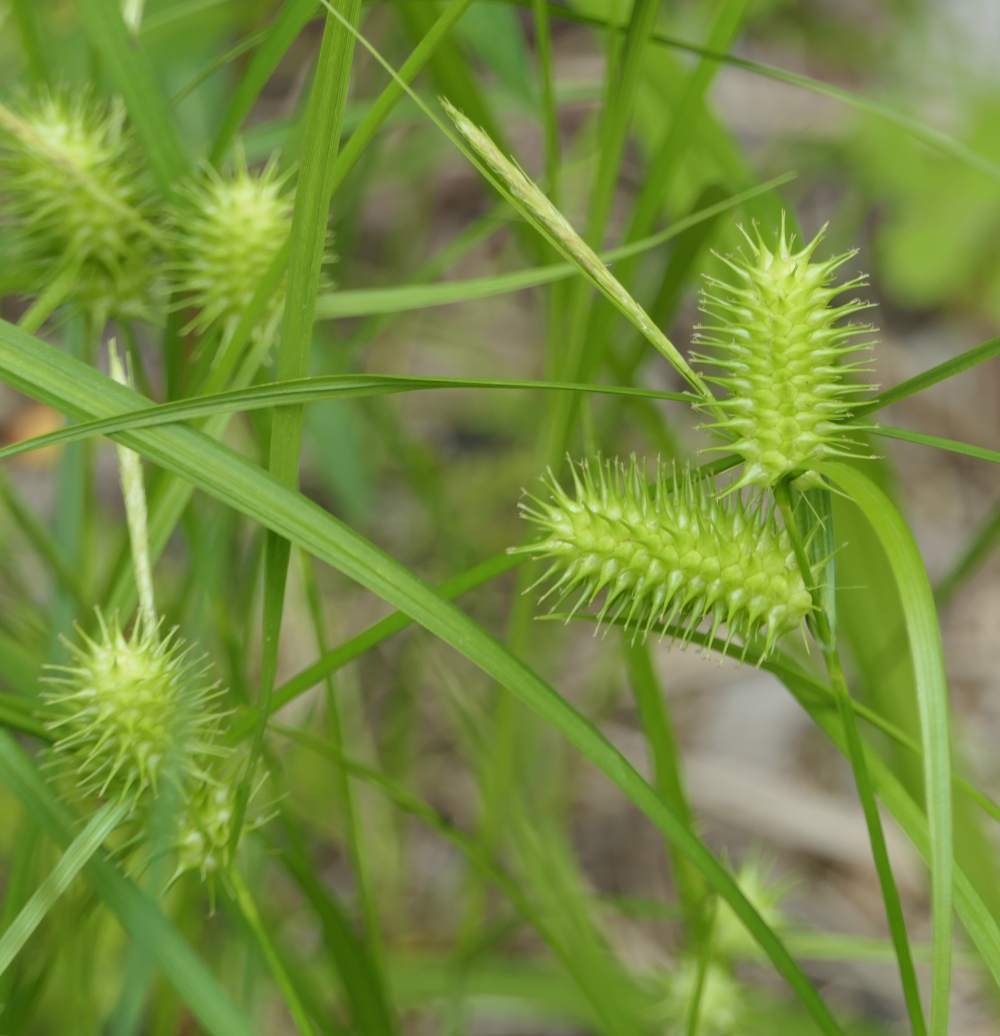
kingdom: Plantae
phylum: Tracheophyta
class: Liliopsida
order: Poales
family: Cyperaceae
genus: Carex
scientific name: Carex lurida
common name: Sallow sedge
